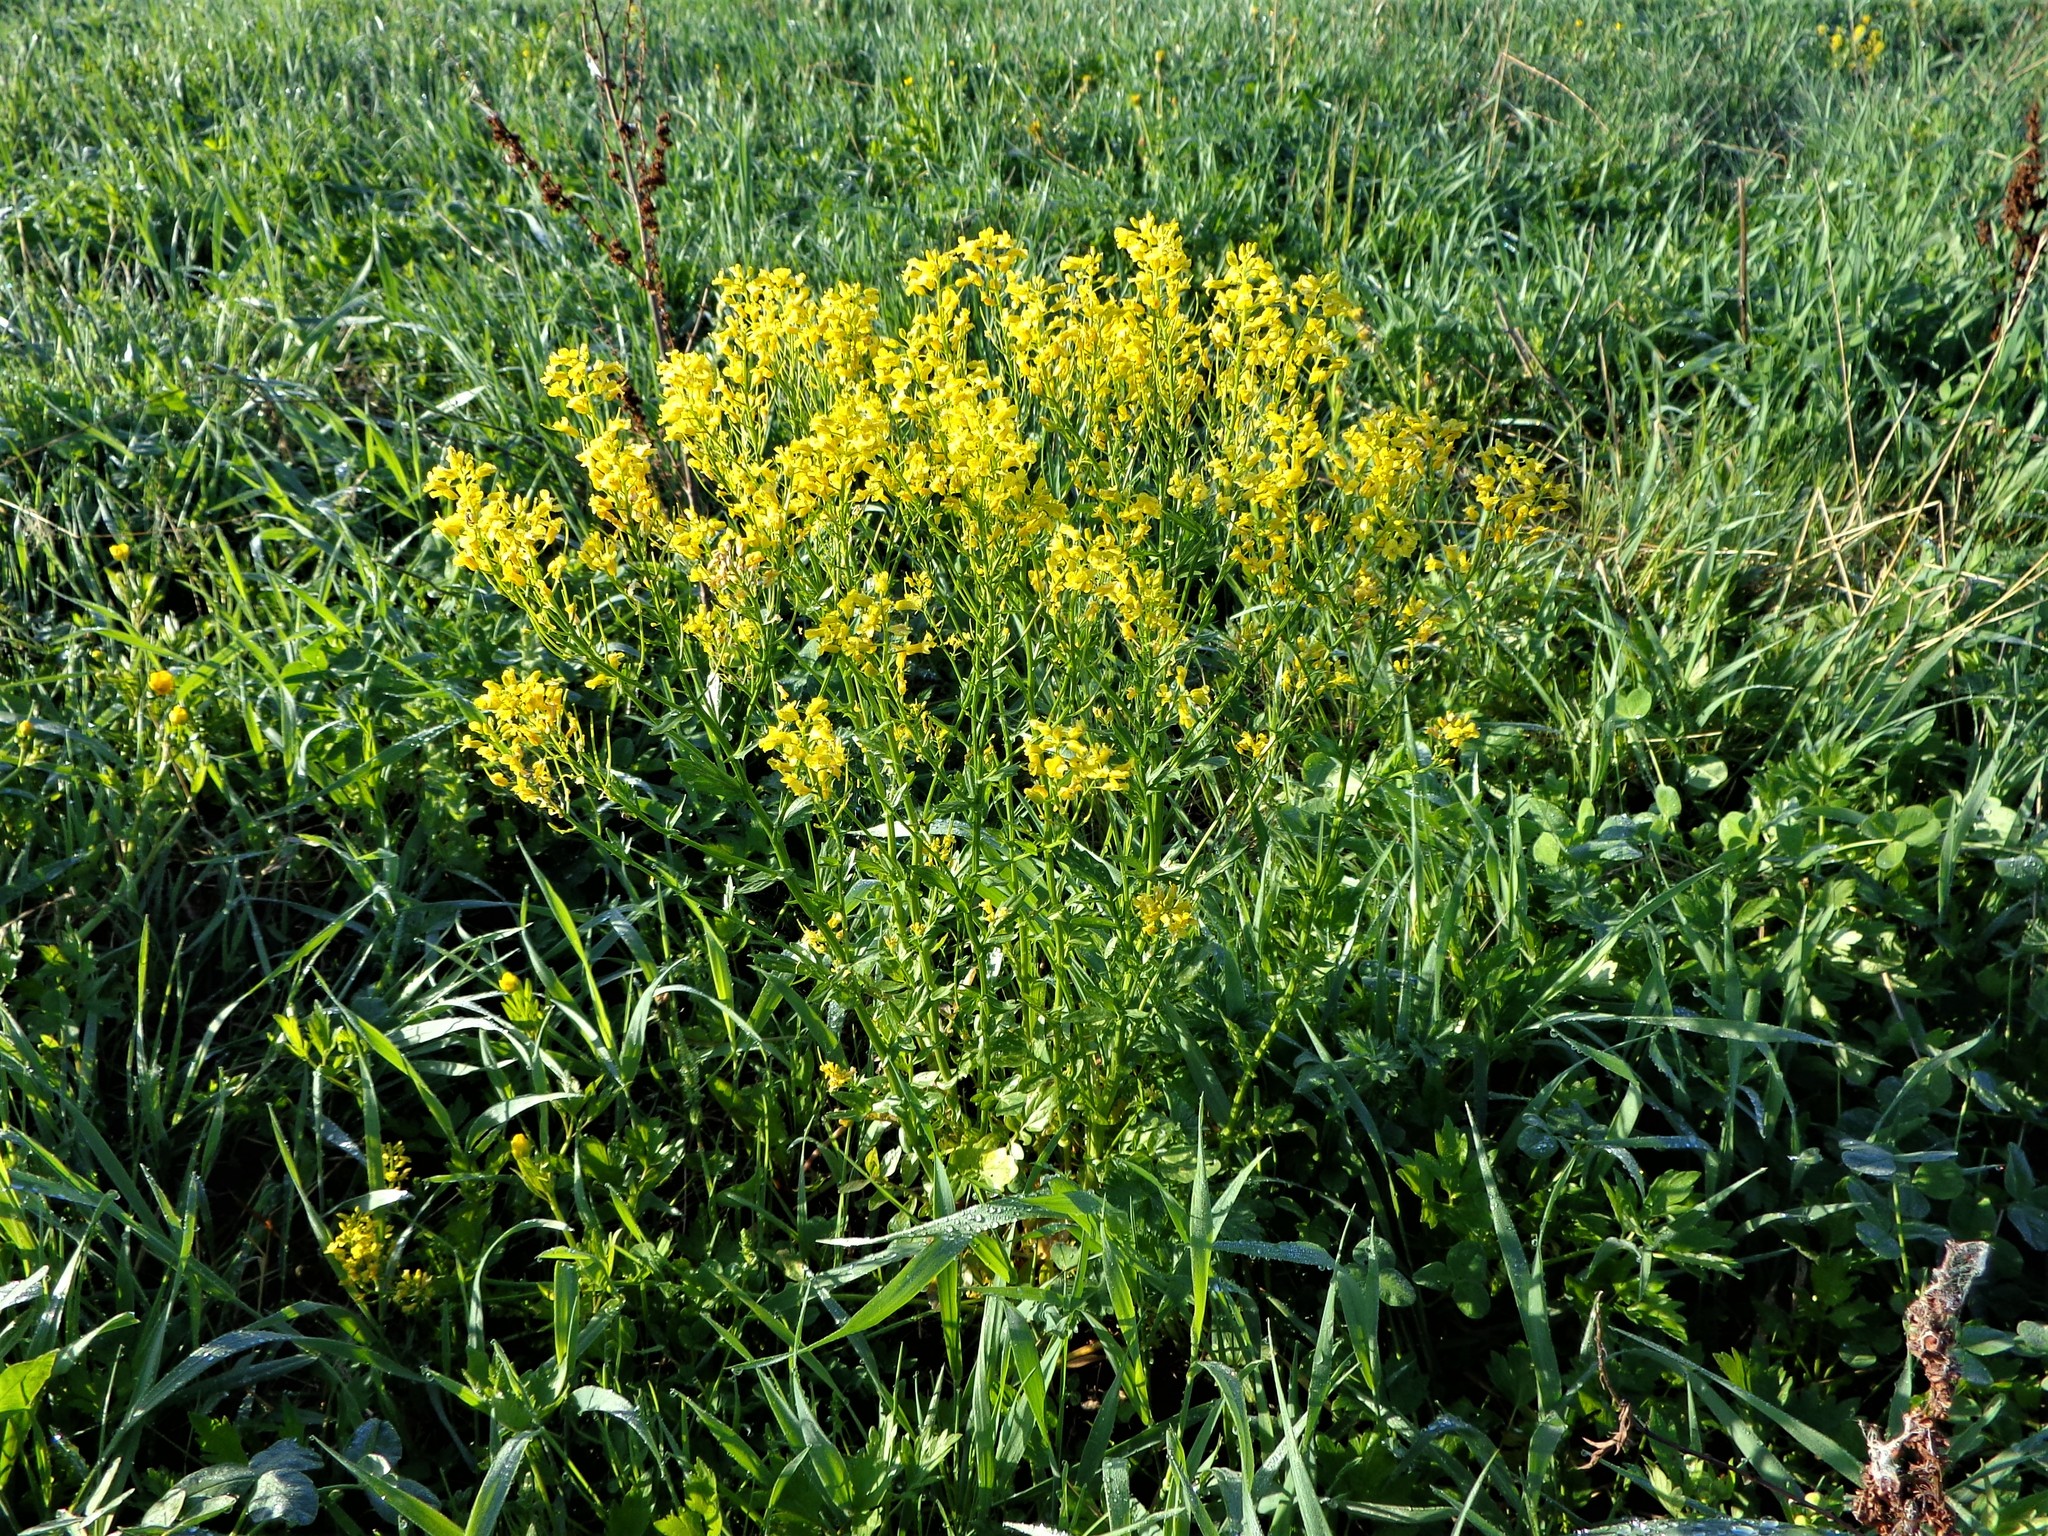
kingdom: Plantae
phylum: Tracheophyta
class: Magnoliopsida
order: Brassicales
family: Brassicaceae
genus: Barbarea
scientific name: Barbarea vulgaris
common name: Cressy-greens
